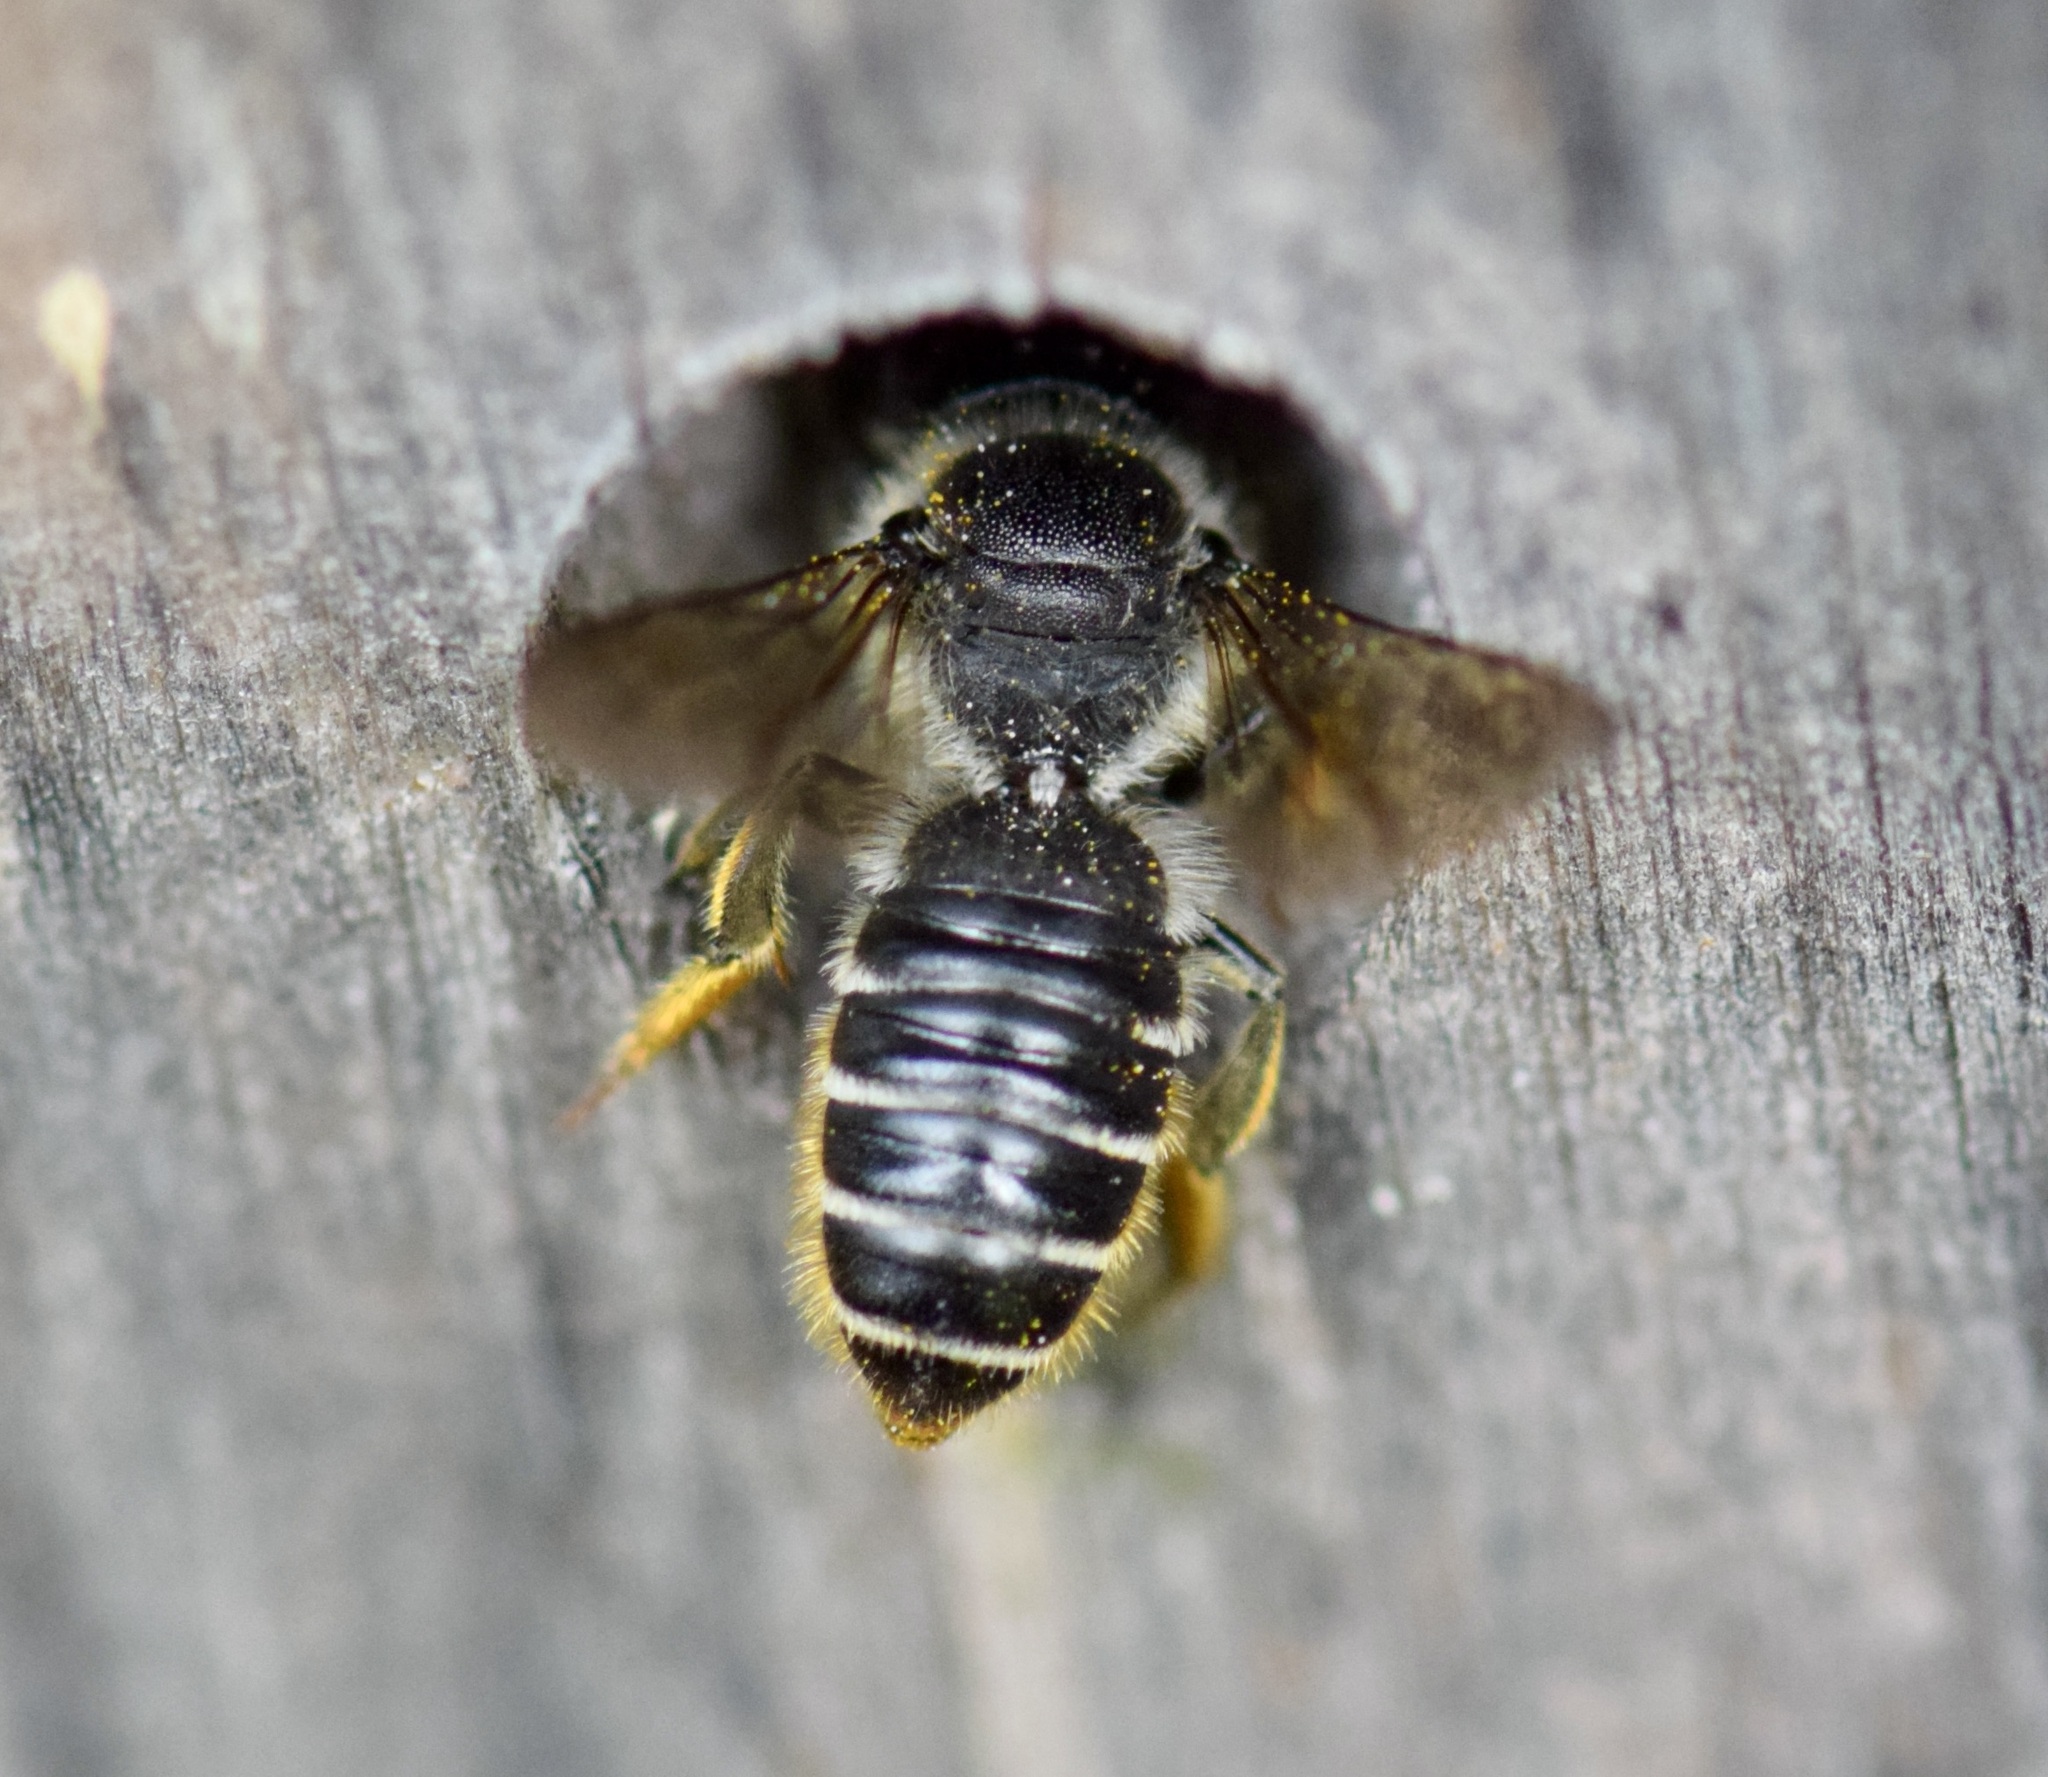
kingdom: Animalia
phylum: Arthropoda
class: Insecta
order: Hymenoptera
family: Megachilidae
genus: Megachile
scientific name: Megachile relativa
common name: Golden-tailed leafcutter
